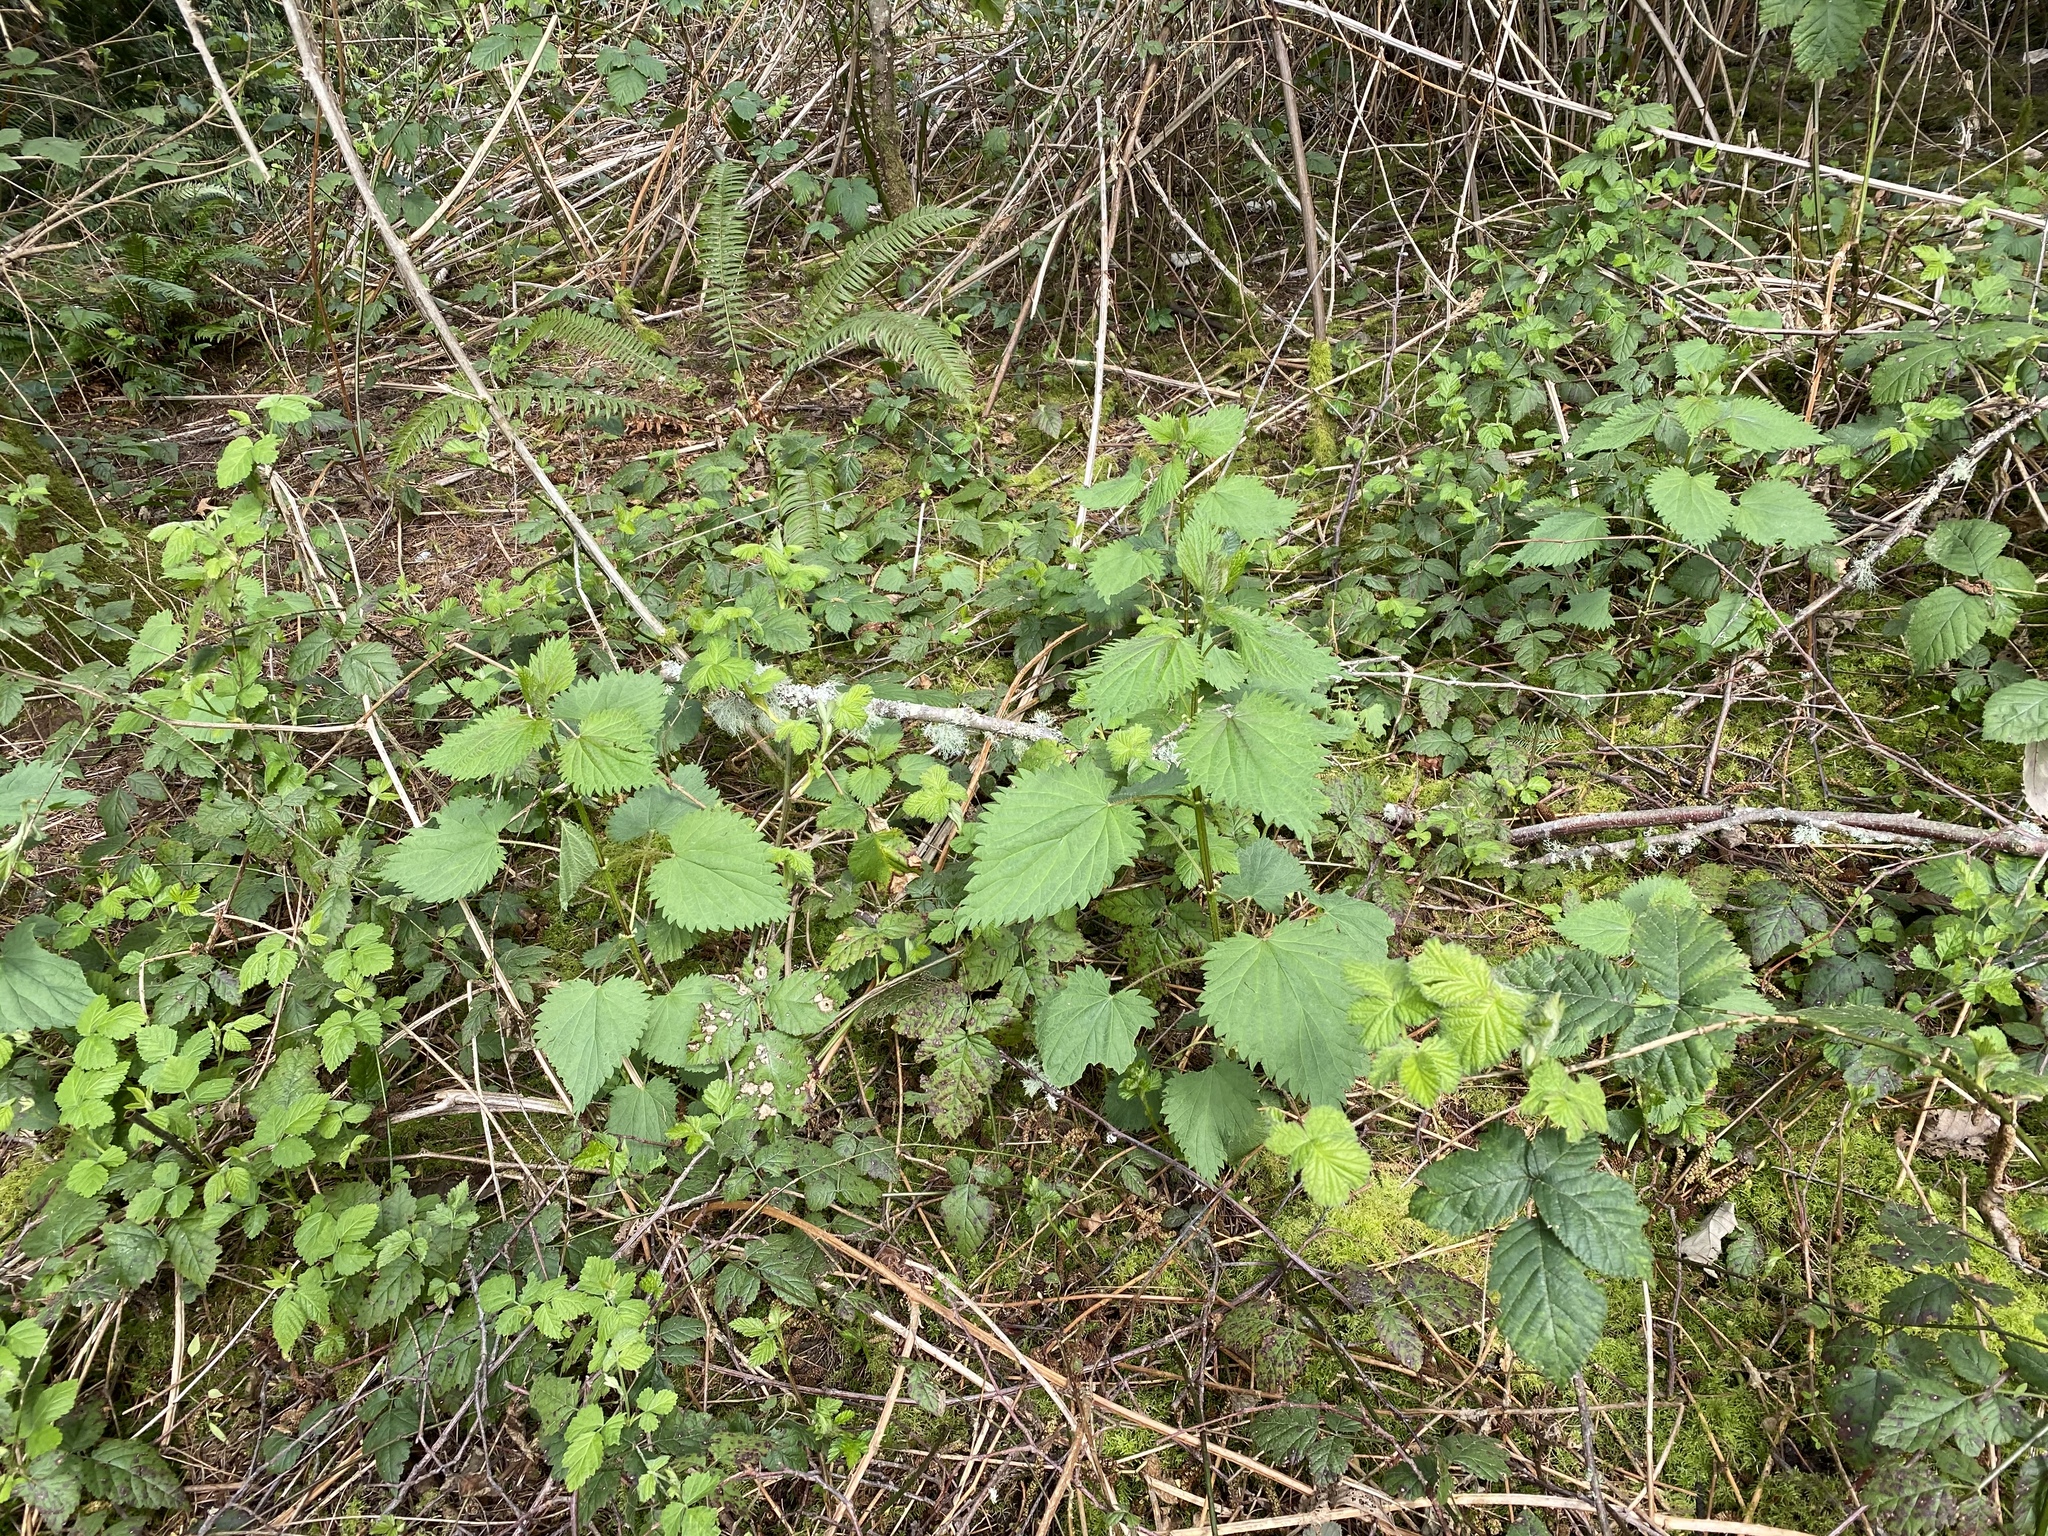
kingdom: Plantae
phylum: Tracheophyta
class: Magnoliopsida
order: Rosales
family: Urticaceae
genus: Urtica
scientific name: Urtica dioica
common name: Common nettle
